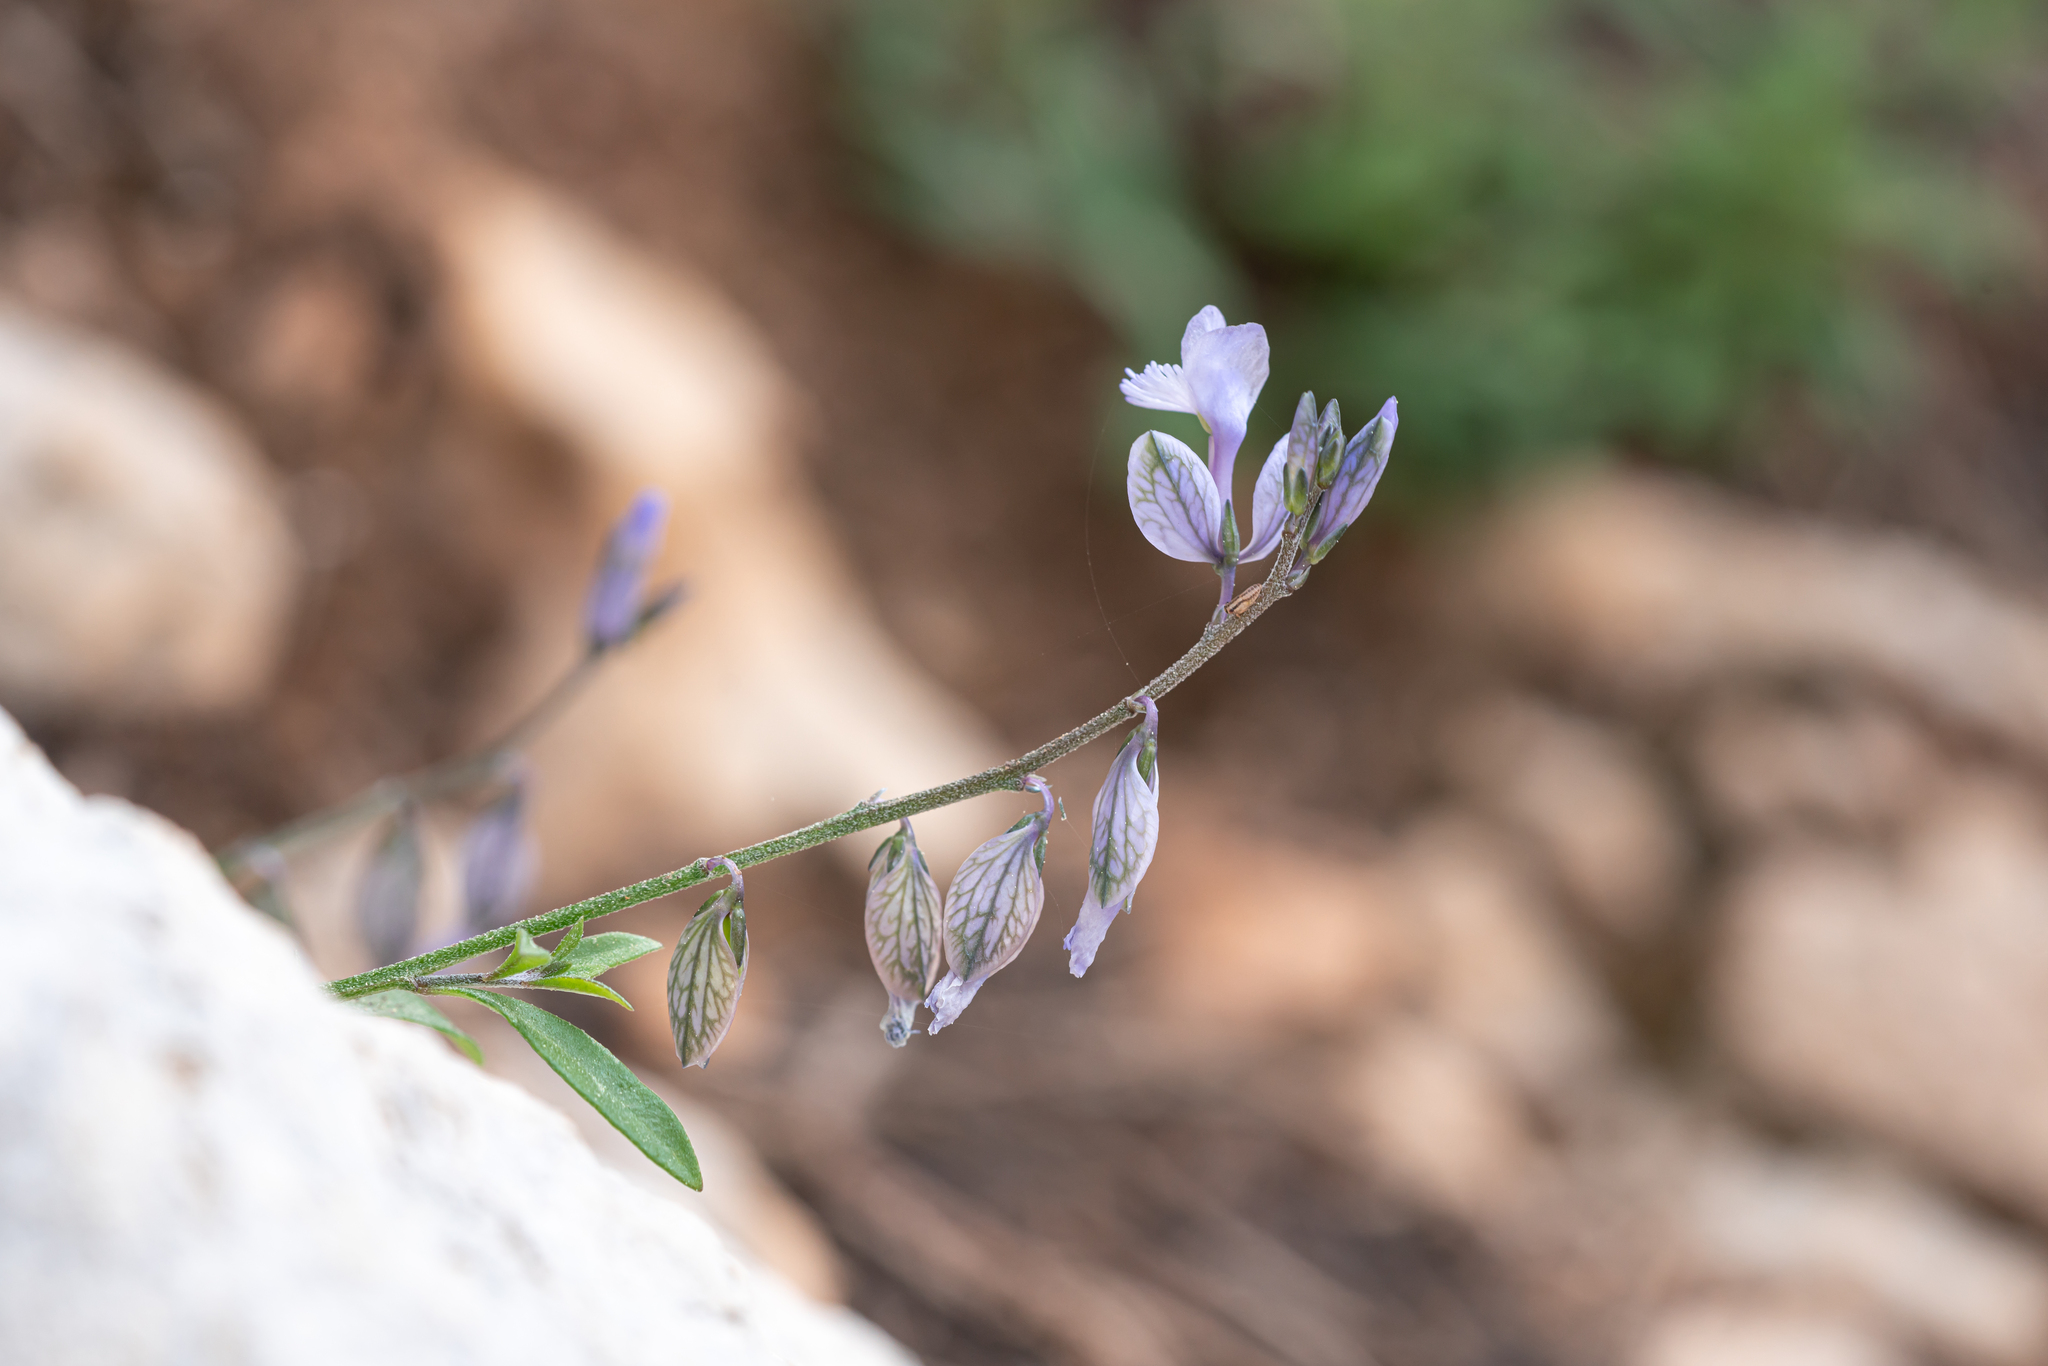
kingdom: Plantae
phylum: Tracheophyta
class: Magnoliopsida
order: Fabales
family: Polygalaceae
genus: Polygala
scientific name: Polygala venulosa
